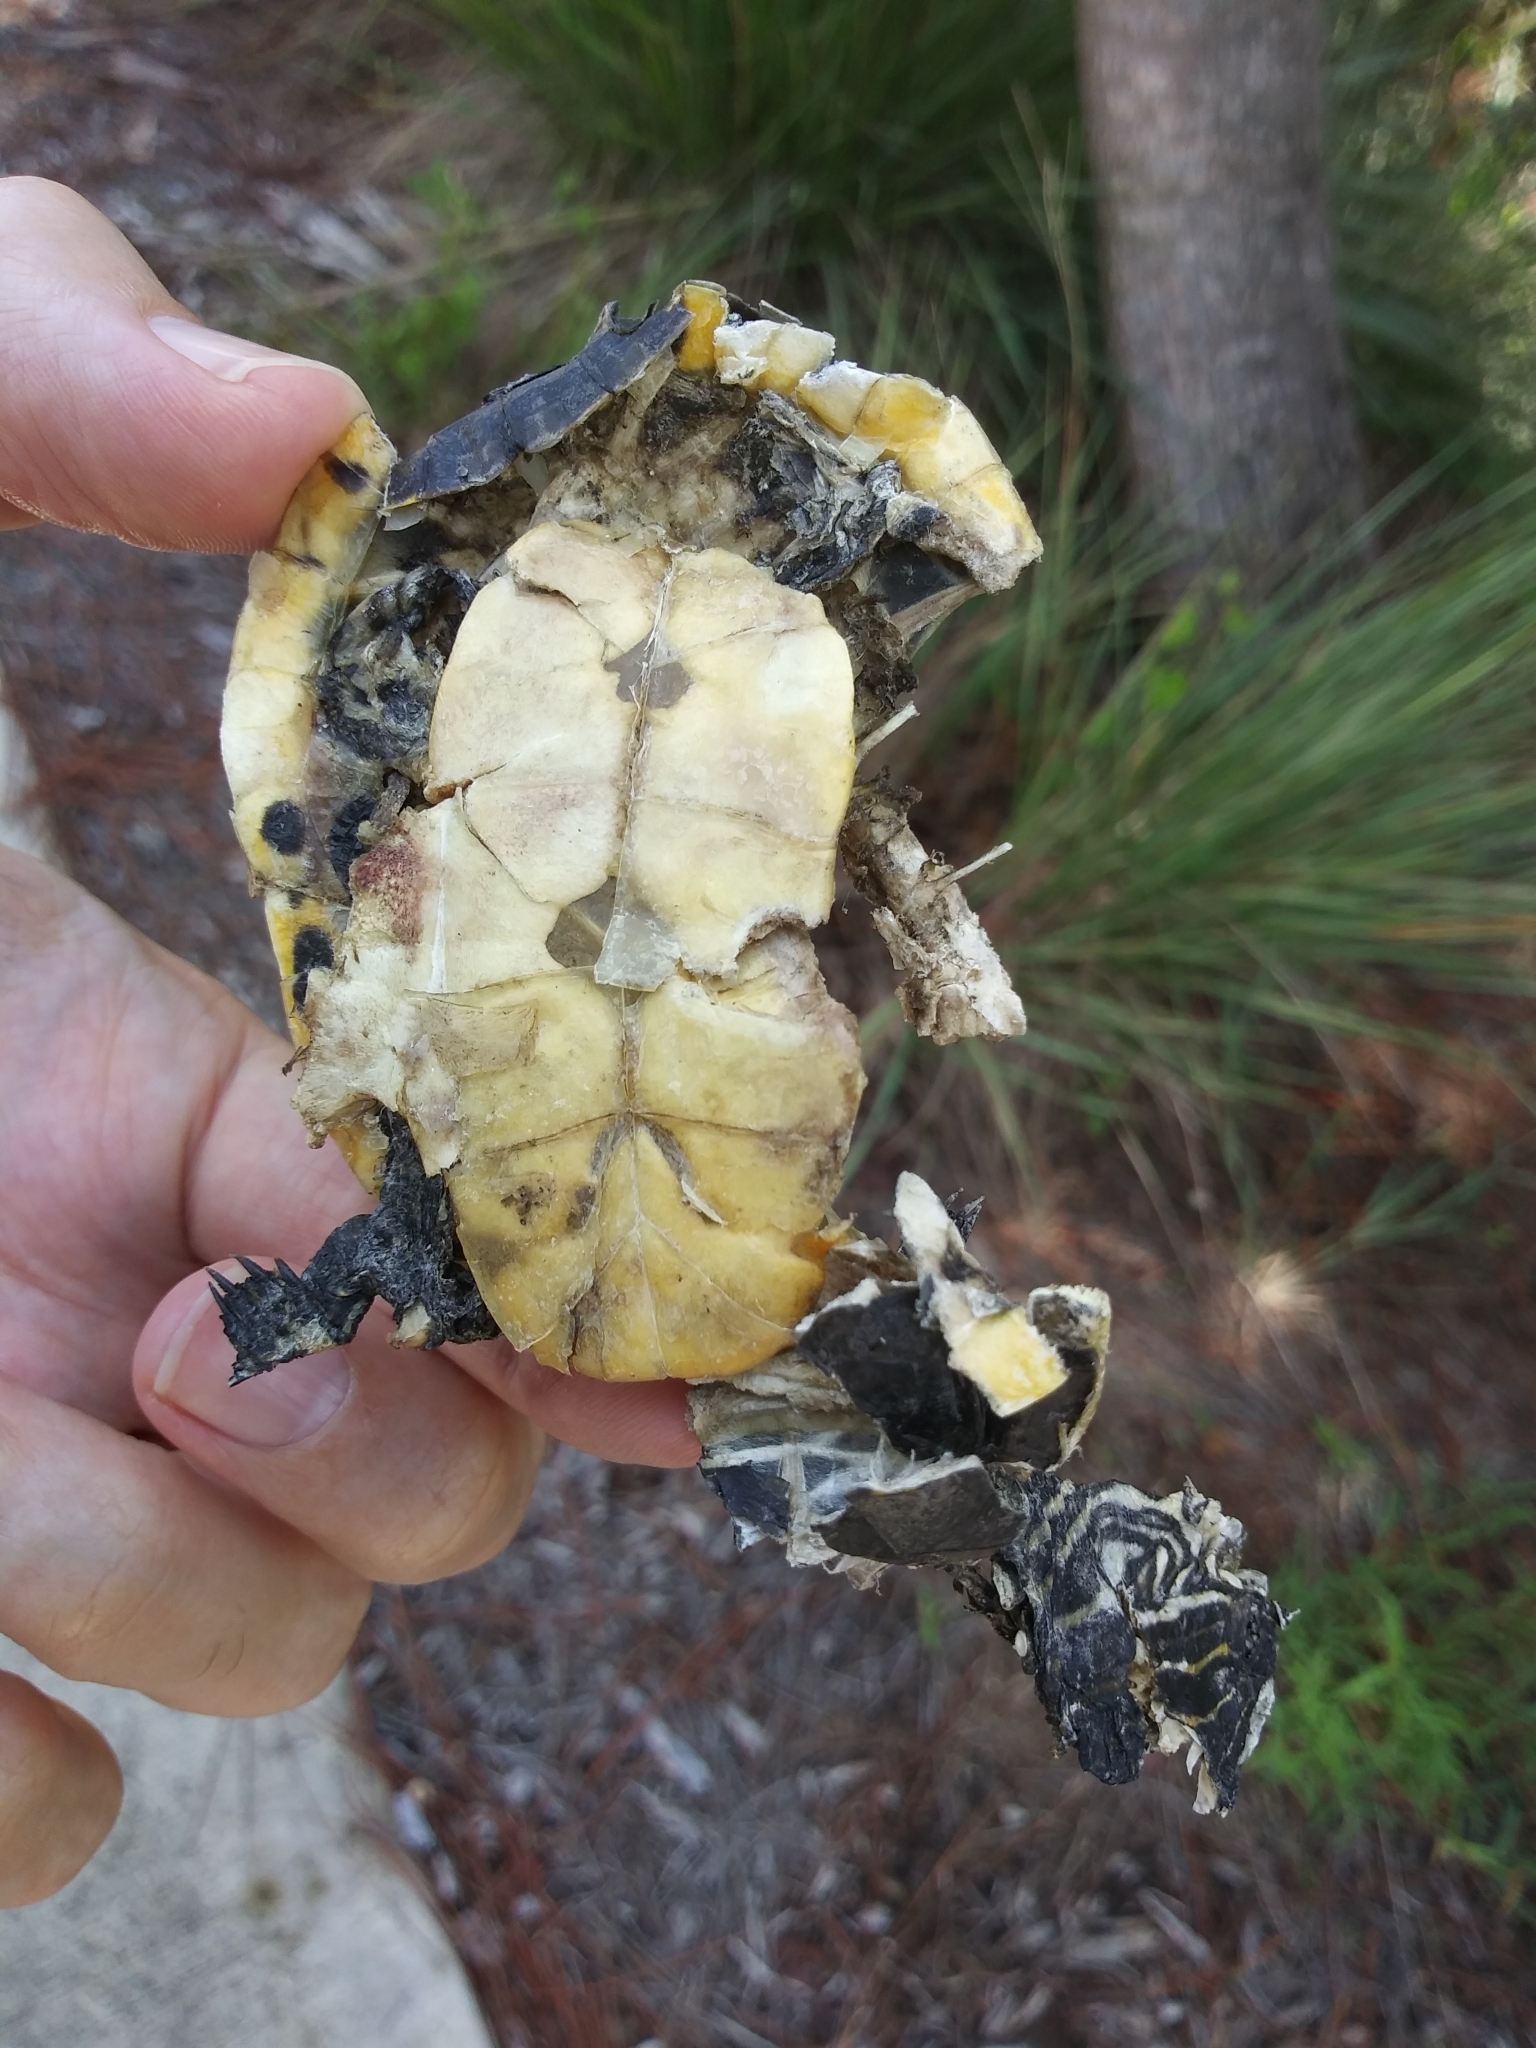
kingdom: Animalia
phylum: Chordata
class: Testudines
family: Emydidae
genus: Deirochelys
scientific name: Deirochelys reticularia
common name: Chicken turtle
